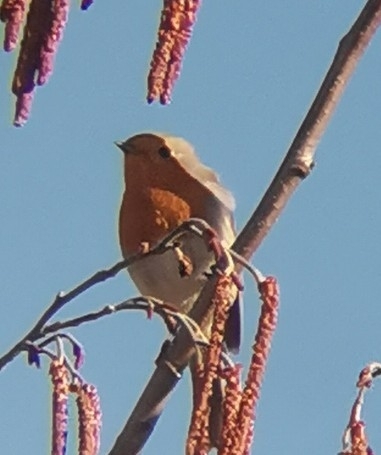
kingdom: Animalia
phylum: Chordata
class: Aves
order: Passeriformes
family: Muscicapidae
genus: Erithacus
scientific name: Erithacus rubecula
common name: European robin
